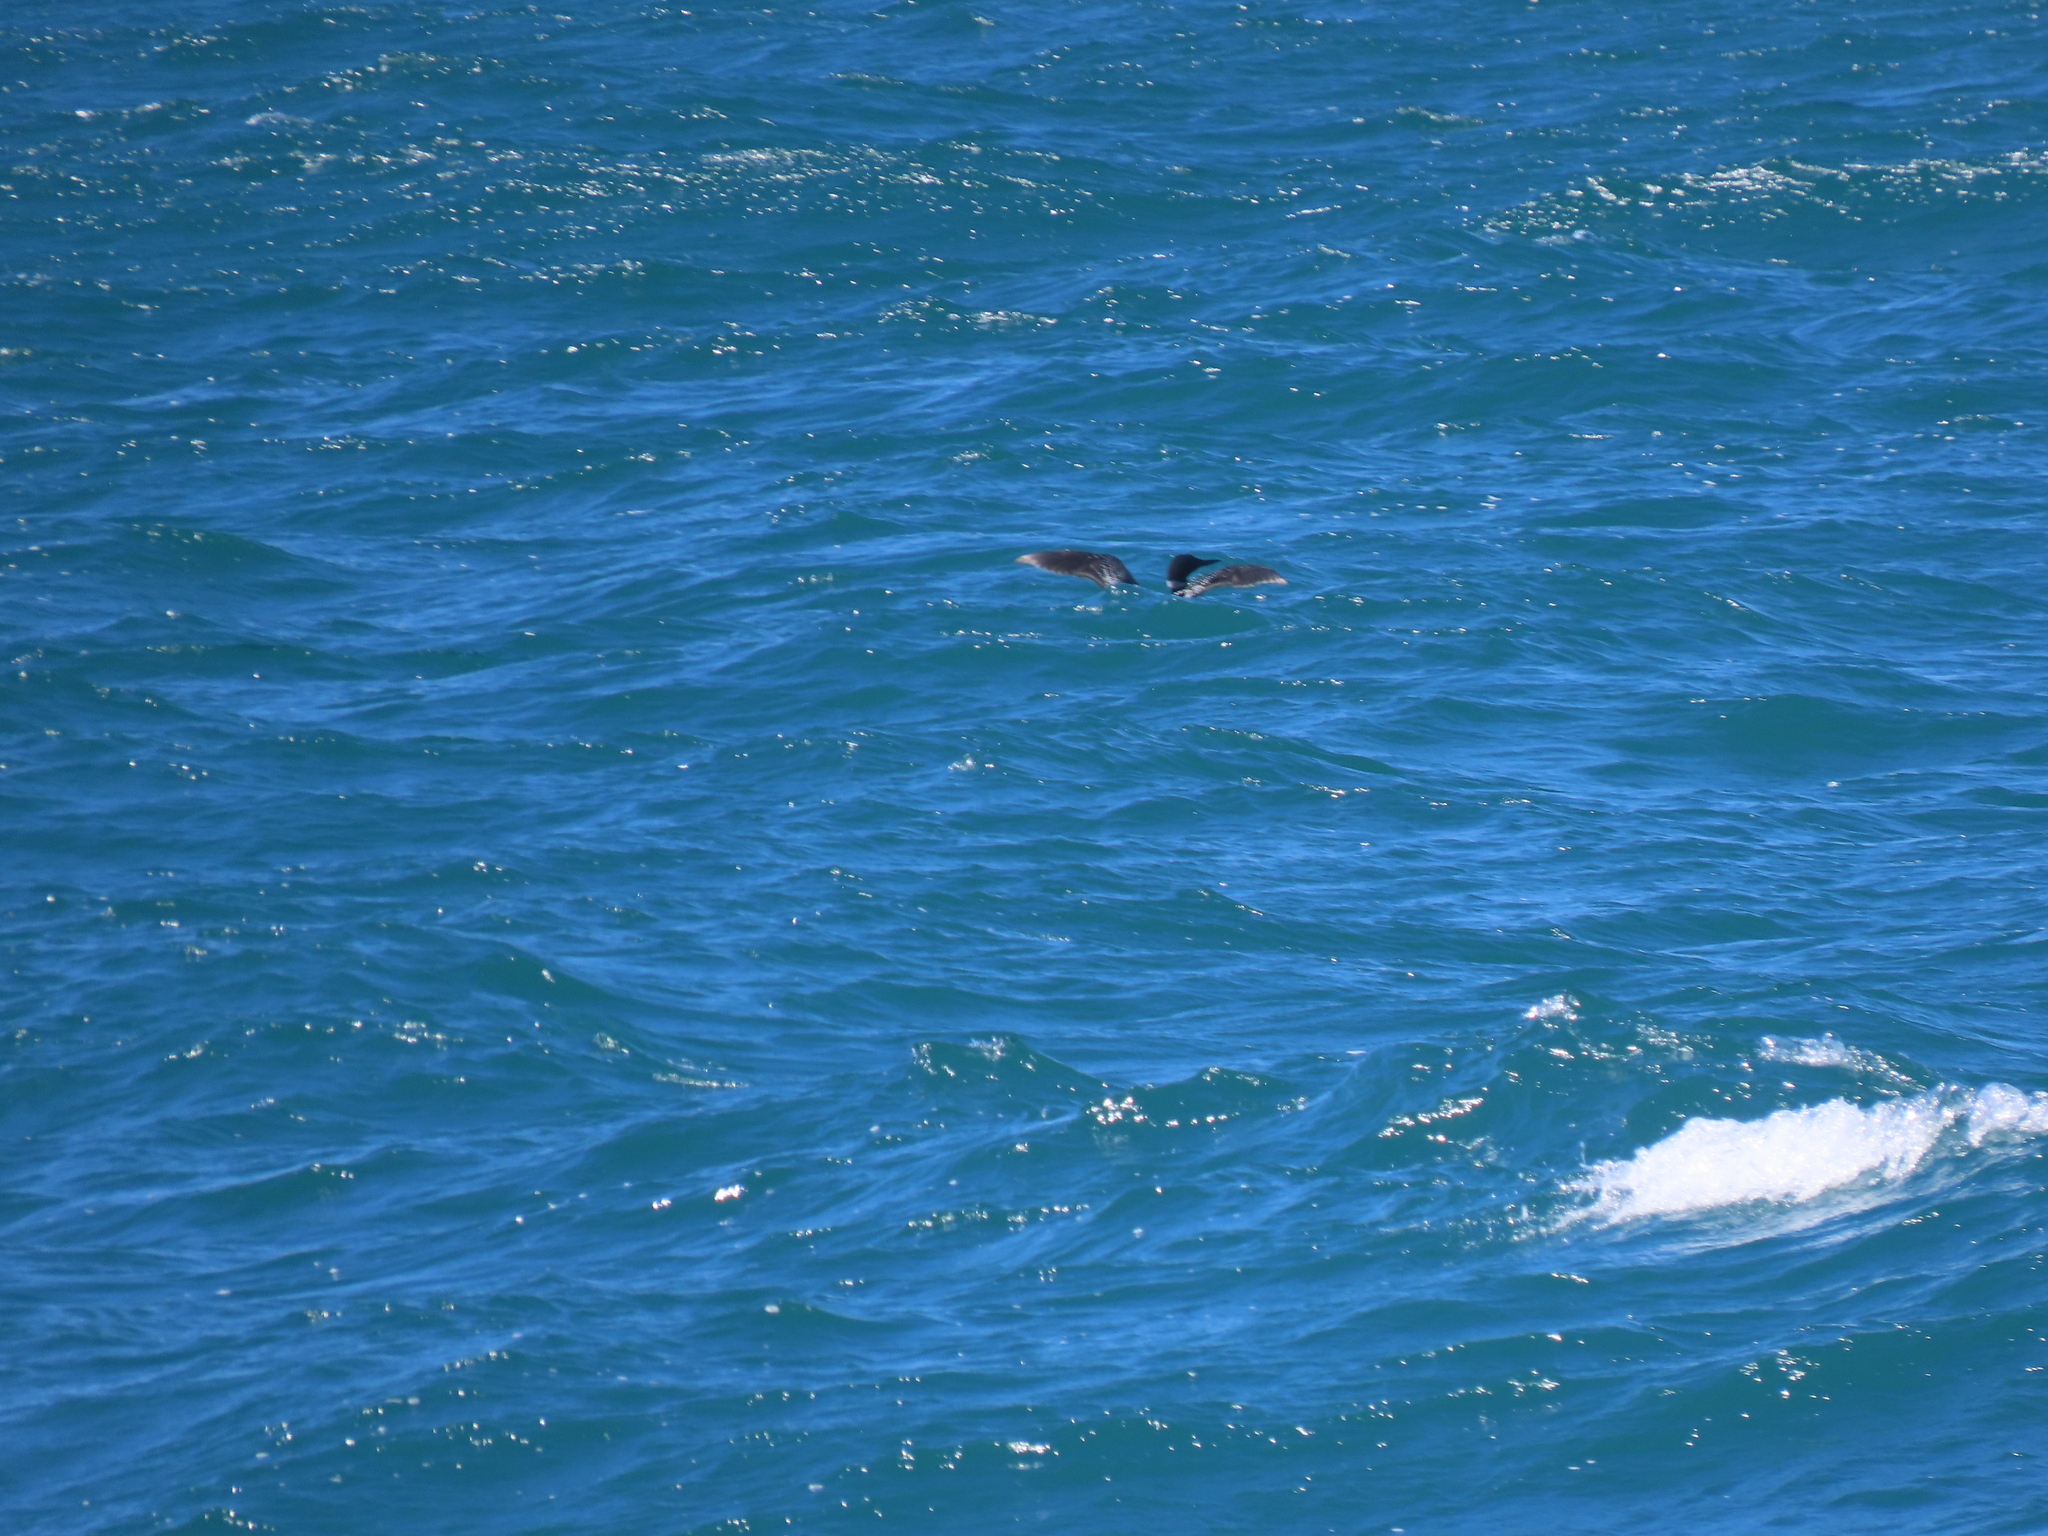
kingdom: Animalia
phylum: Chordata
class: Aves
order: Gaviiformes
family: Gaviidae
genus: Gavia
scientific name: Gavia immer
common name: Common loon
